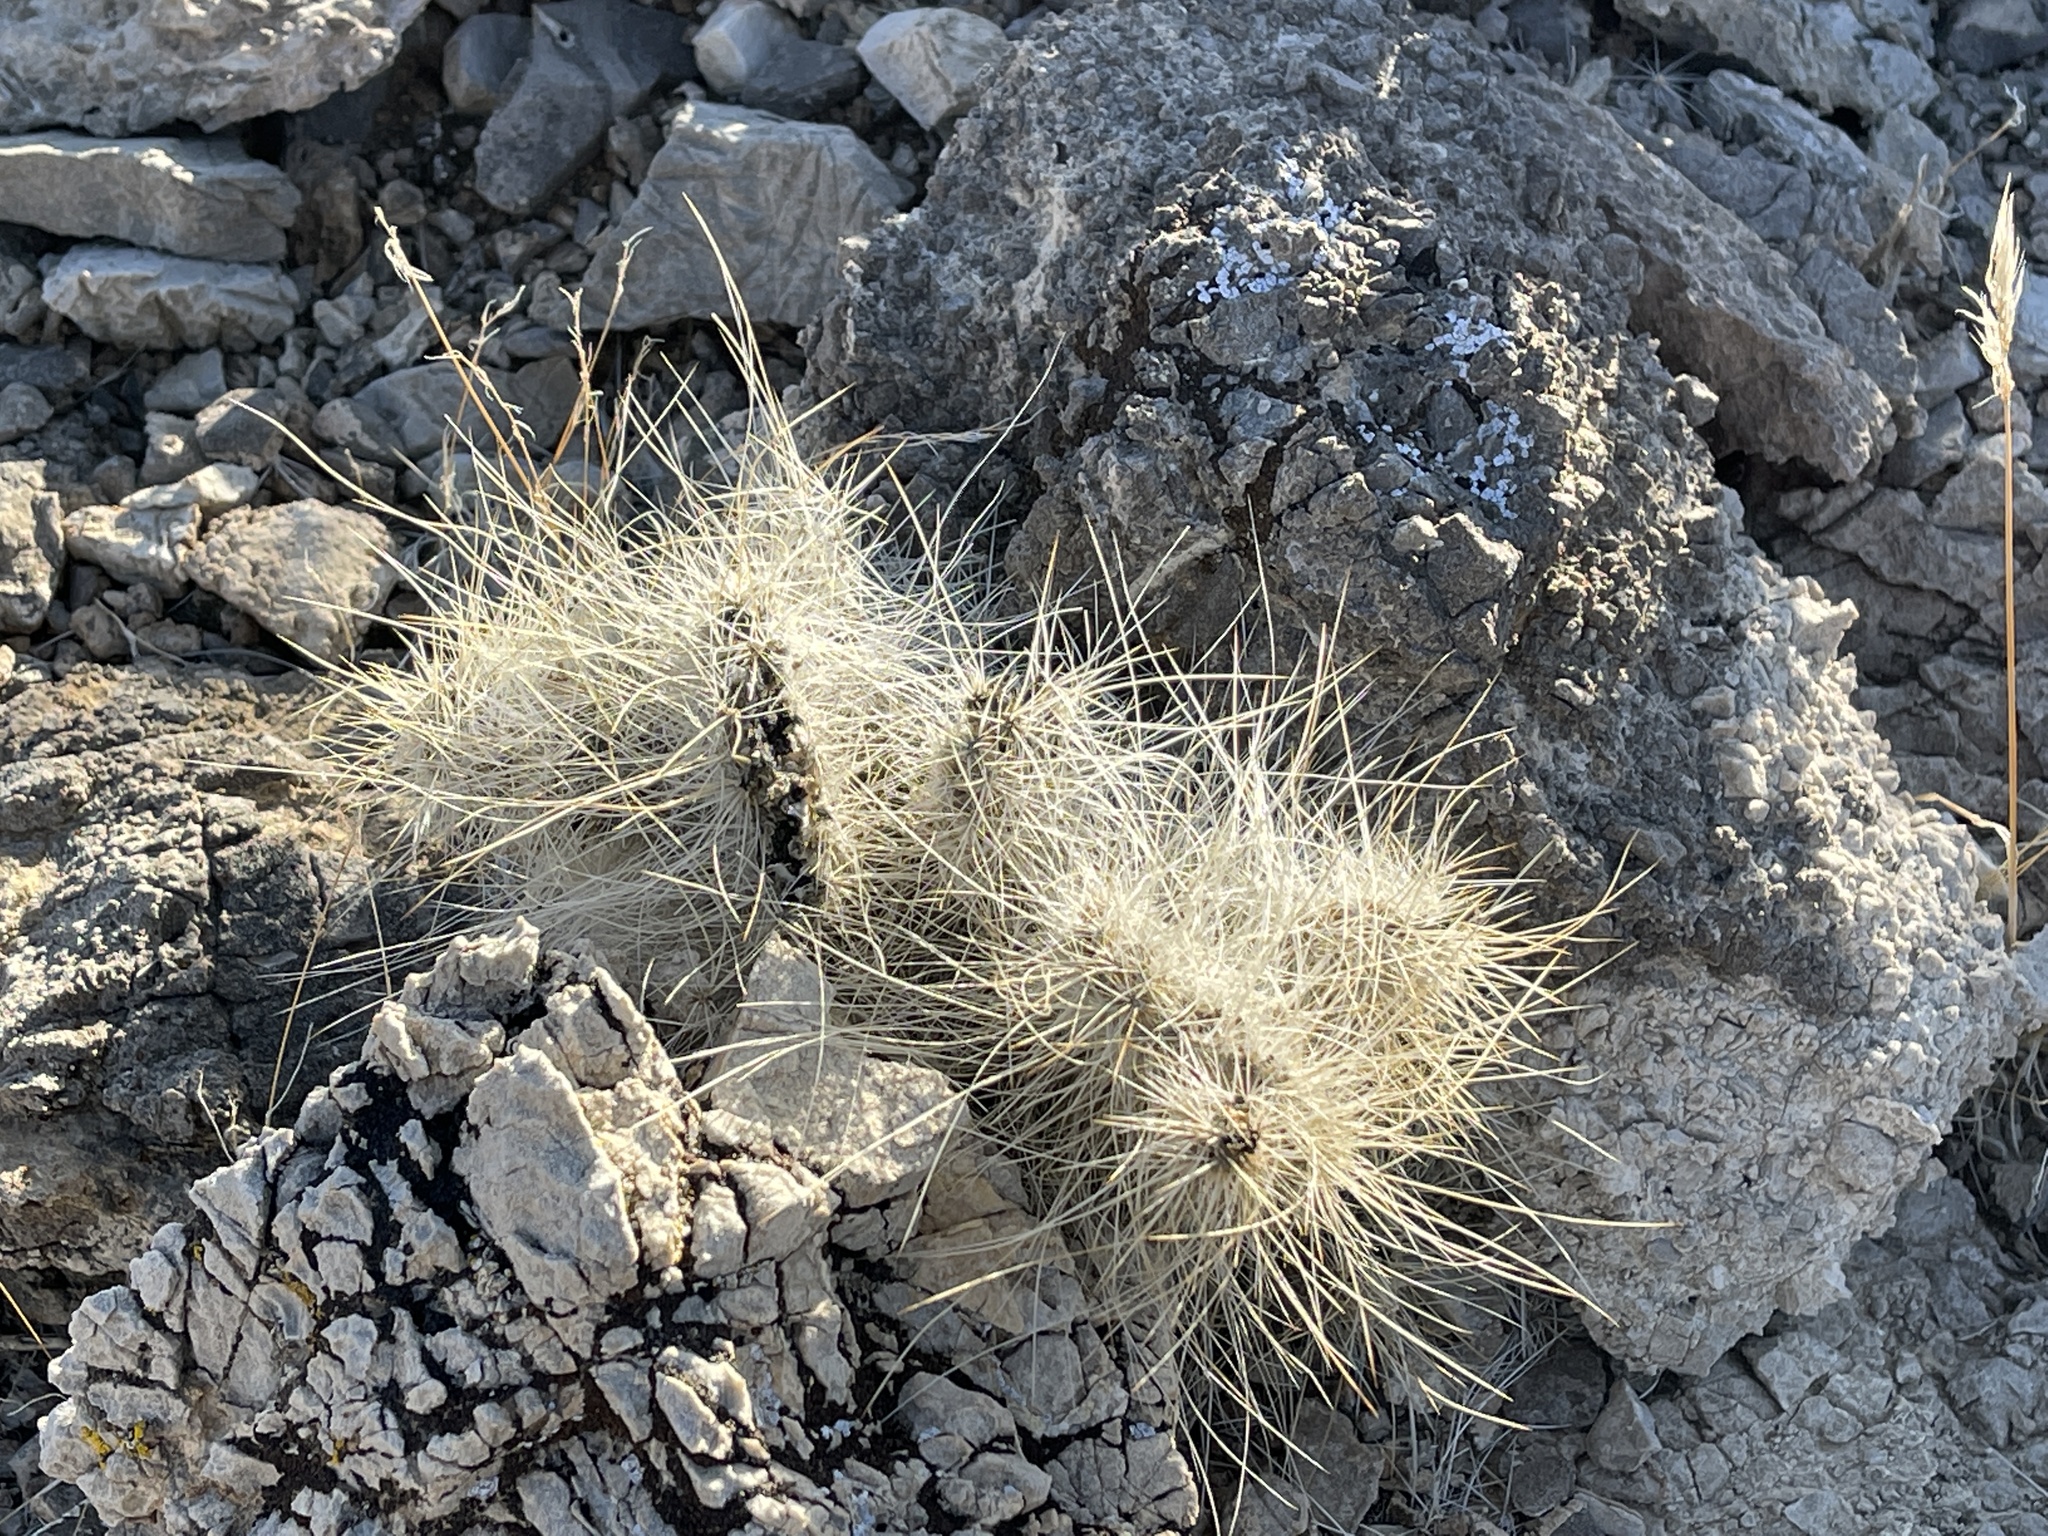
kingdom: Plantae
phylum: Tracheophyta
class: Magnoliopsida
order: Caryophyllales
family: Cactaceae
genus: Opuntia
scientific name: Opuntia polyacantha
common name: Plains prickly-pear
